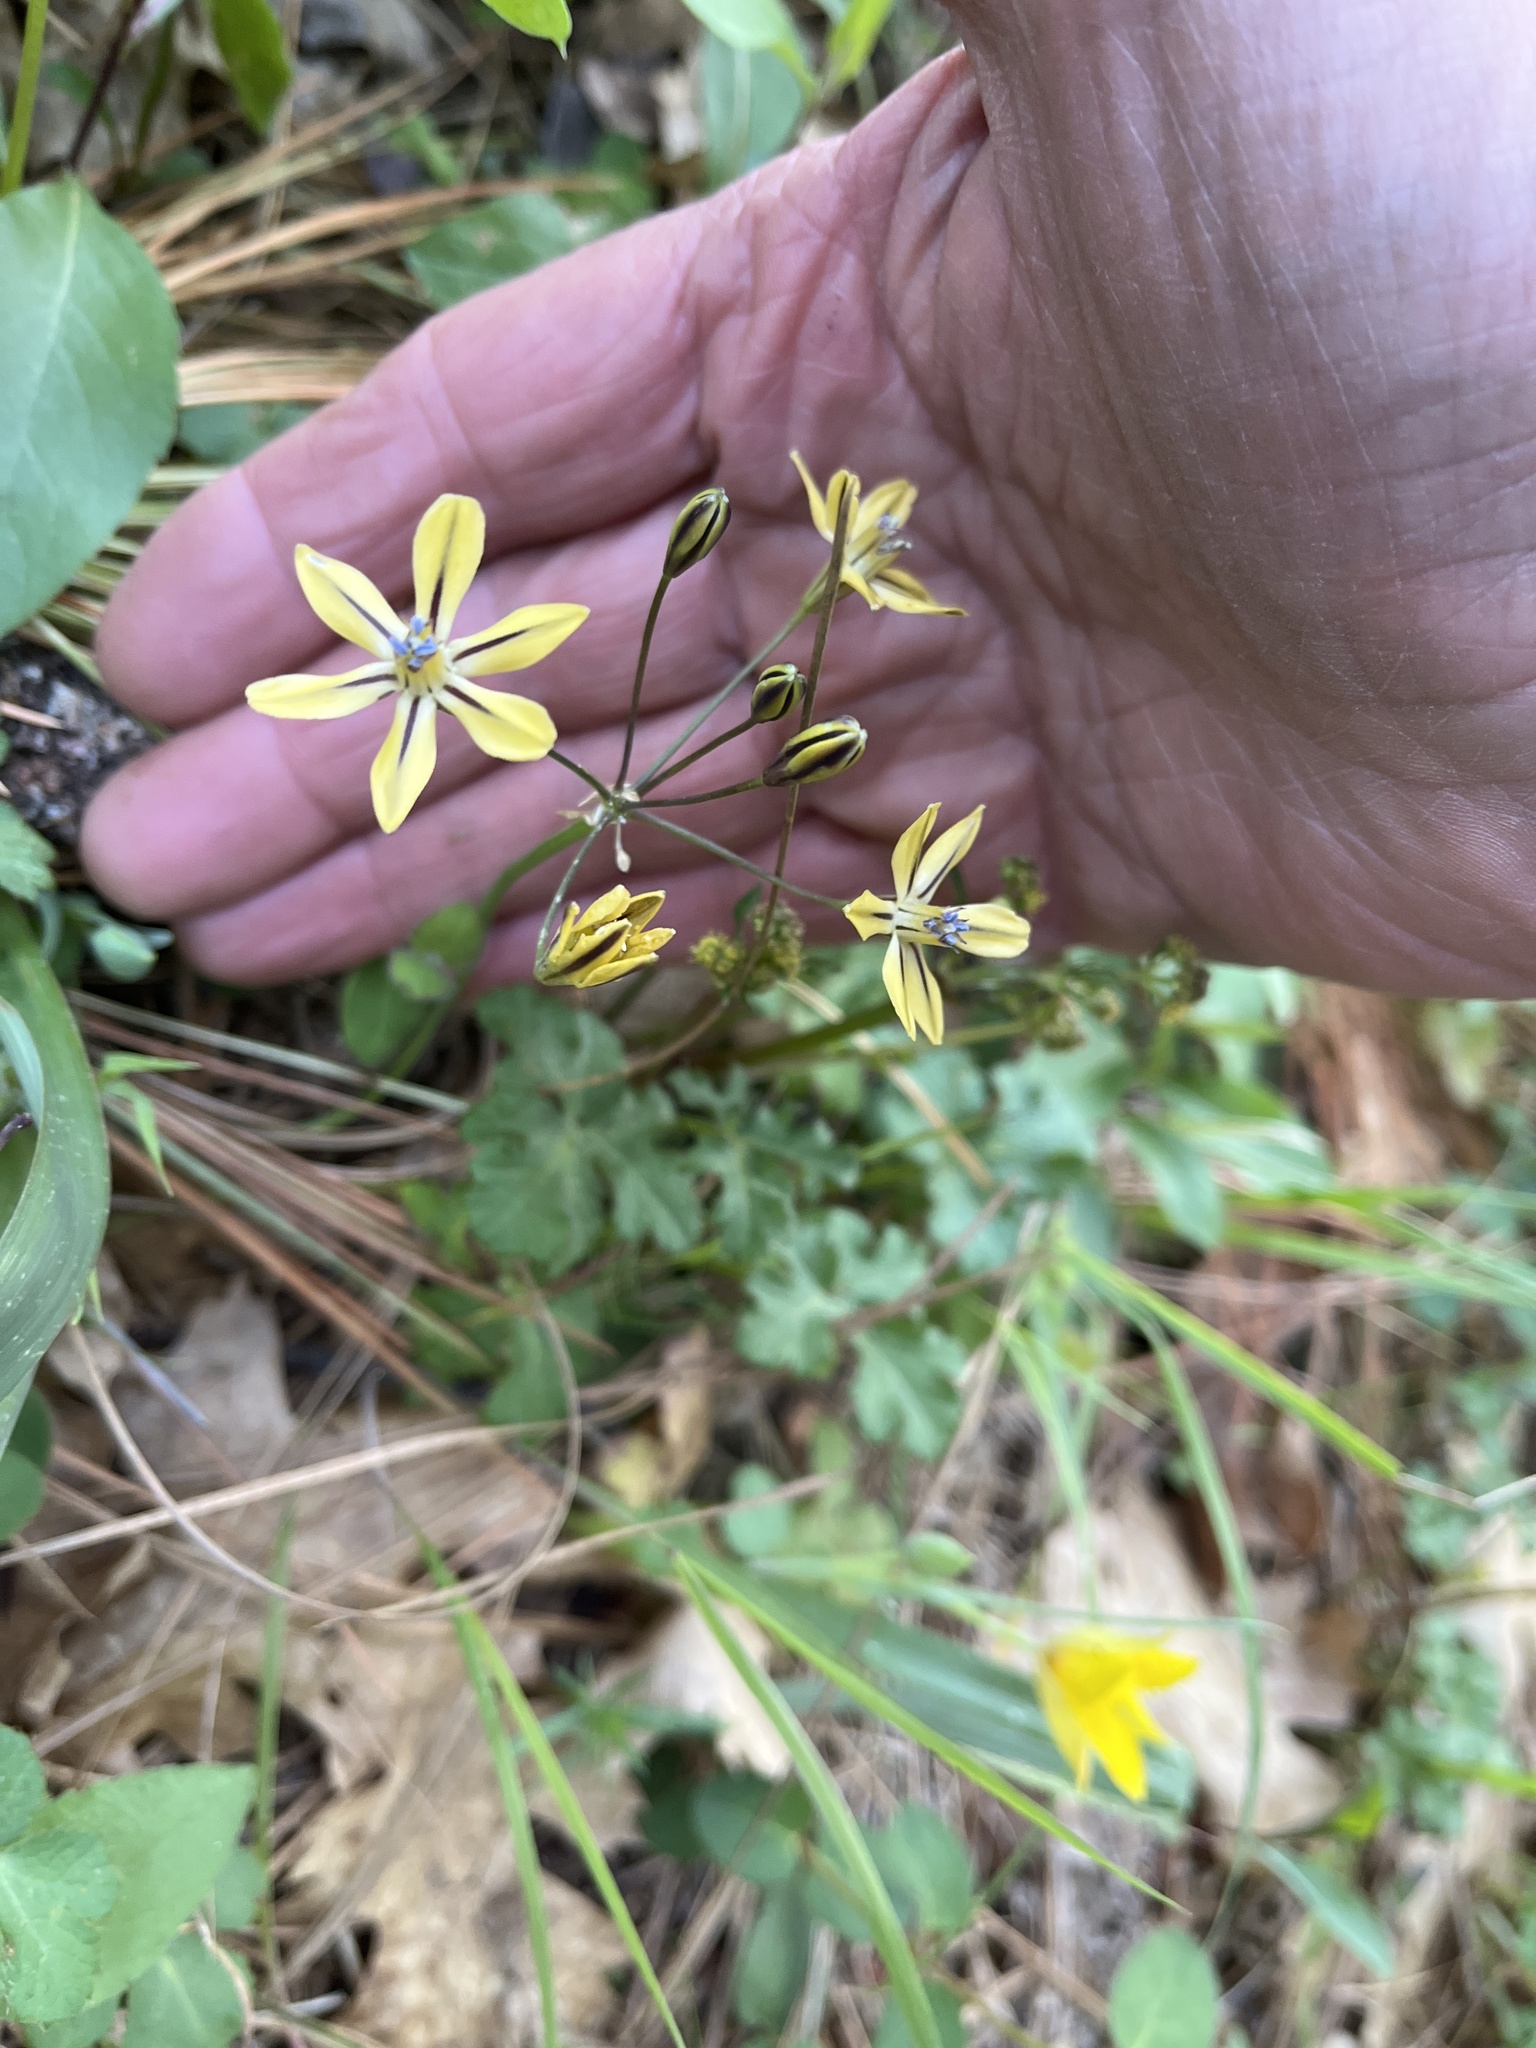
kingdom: Plantae
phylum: Tracheophyta
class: Liliopsida
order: Asparagales
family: Asparagaceae
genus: Triteleia
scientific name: Triteleia ixioides
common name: Yellow-brodiaea
